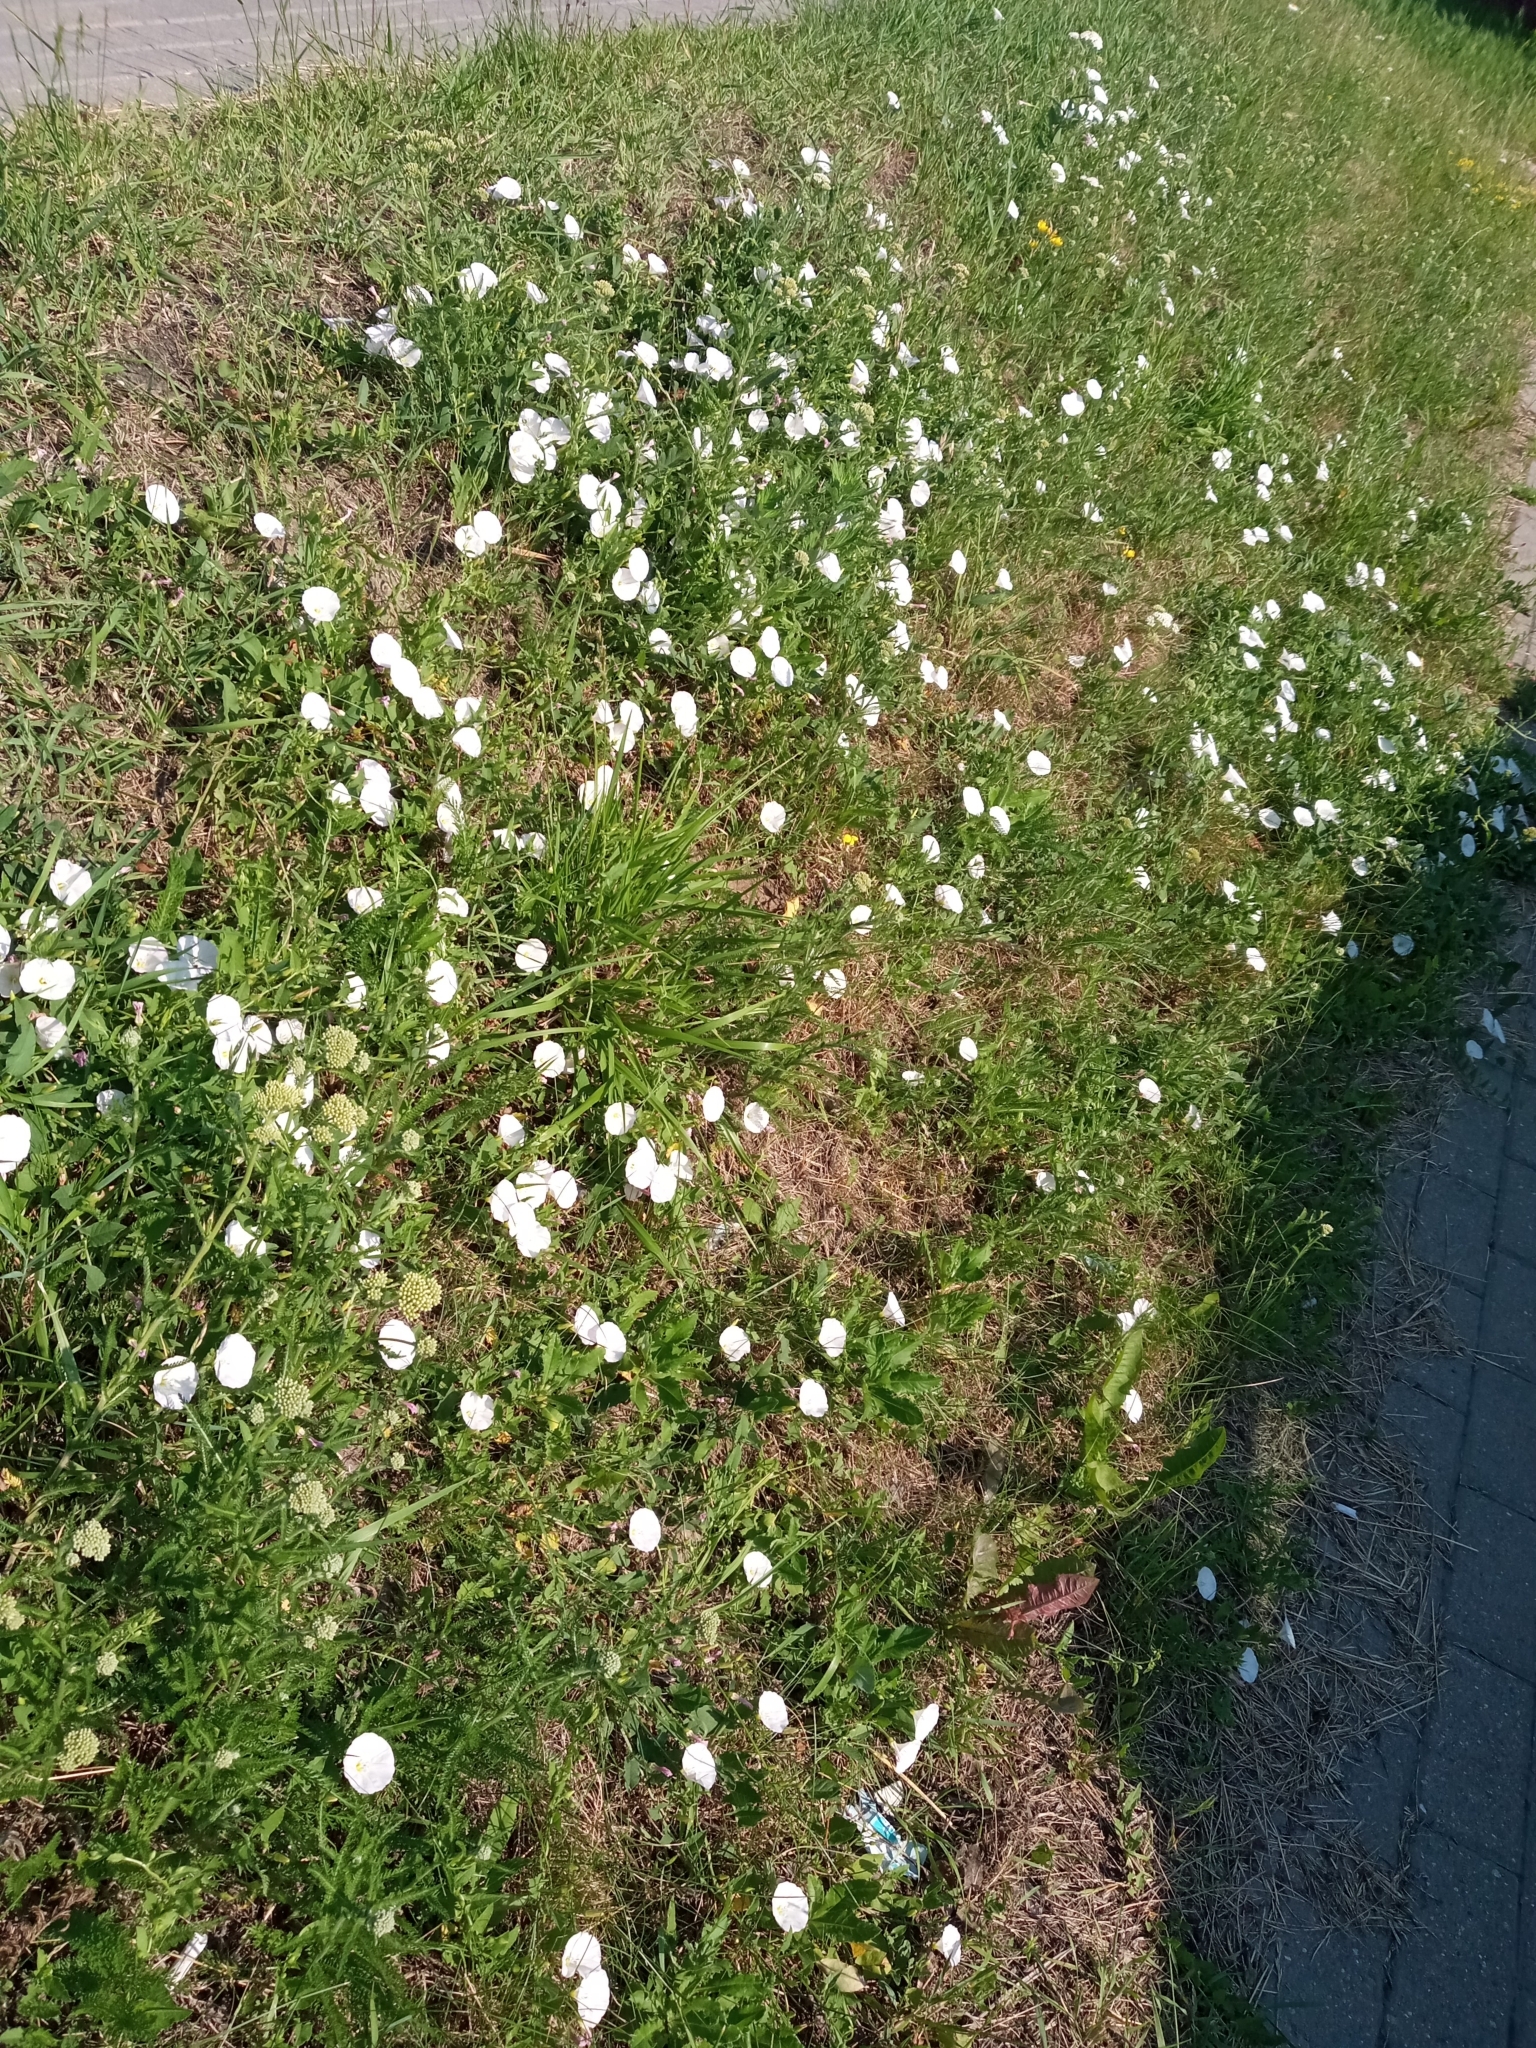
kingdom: Plantae
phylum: Tracheophyta
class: Magnoliopsida
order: Solanales
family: Convolvulaceae
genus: Convolvulus
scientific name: Convolvulus arvensis
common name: Field bindweed
